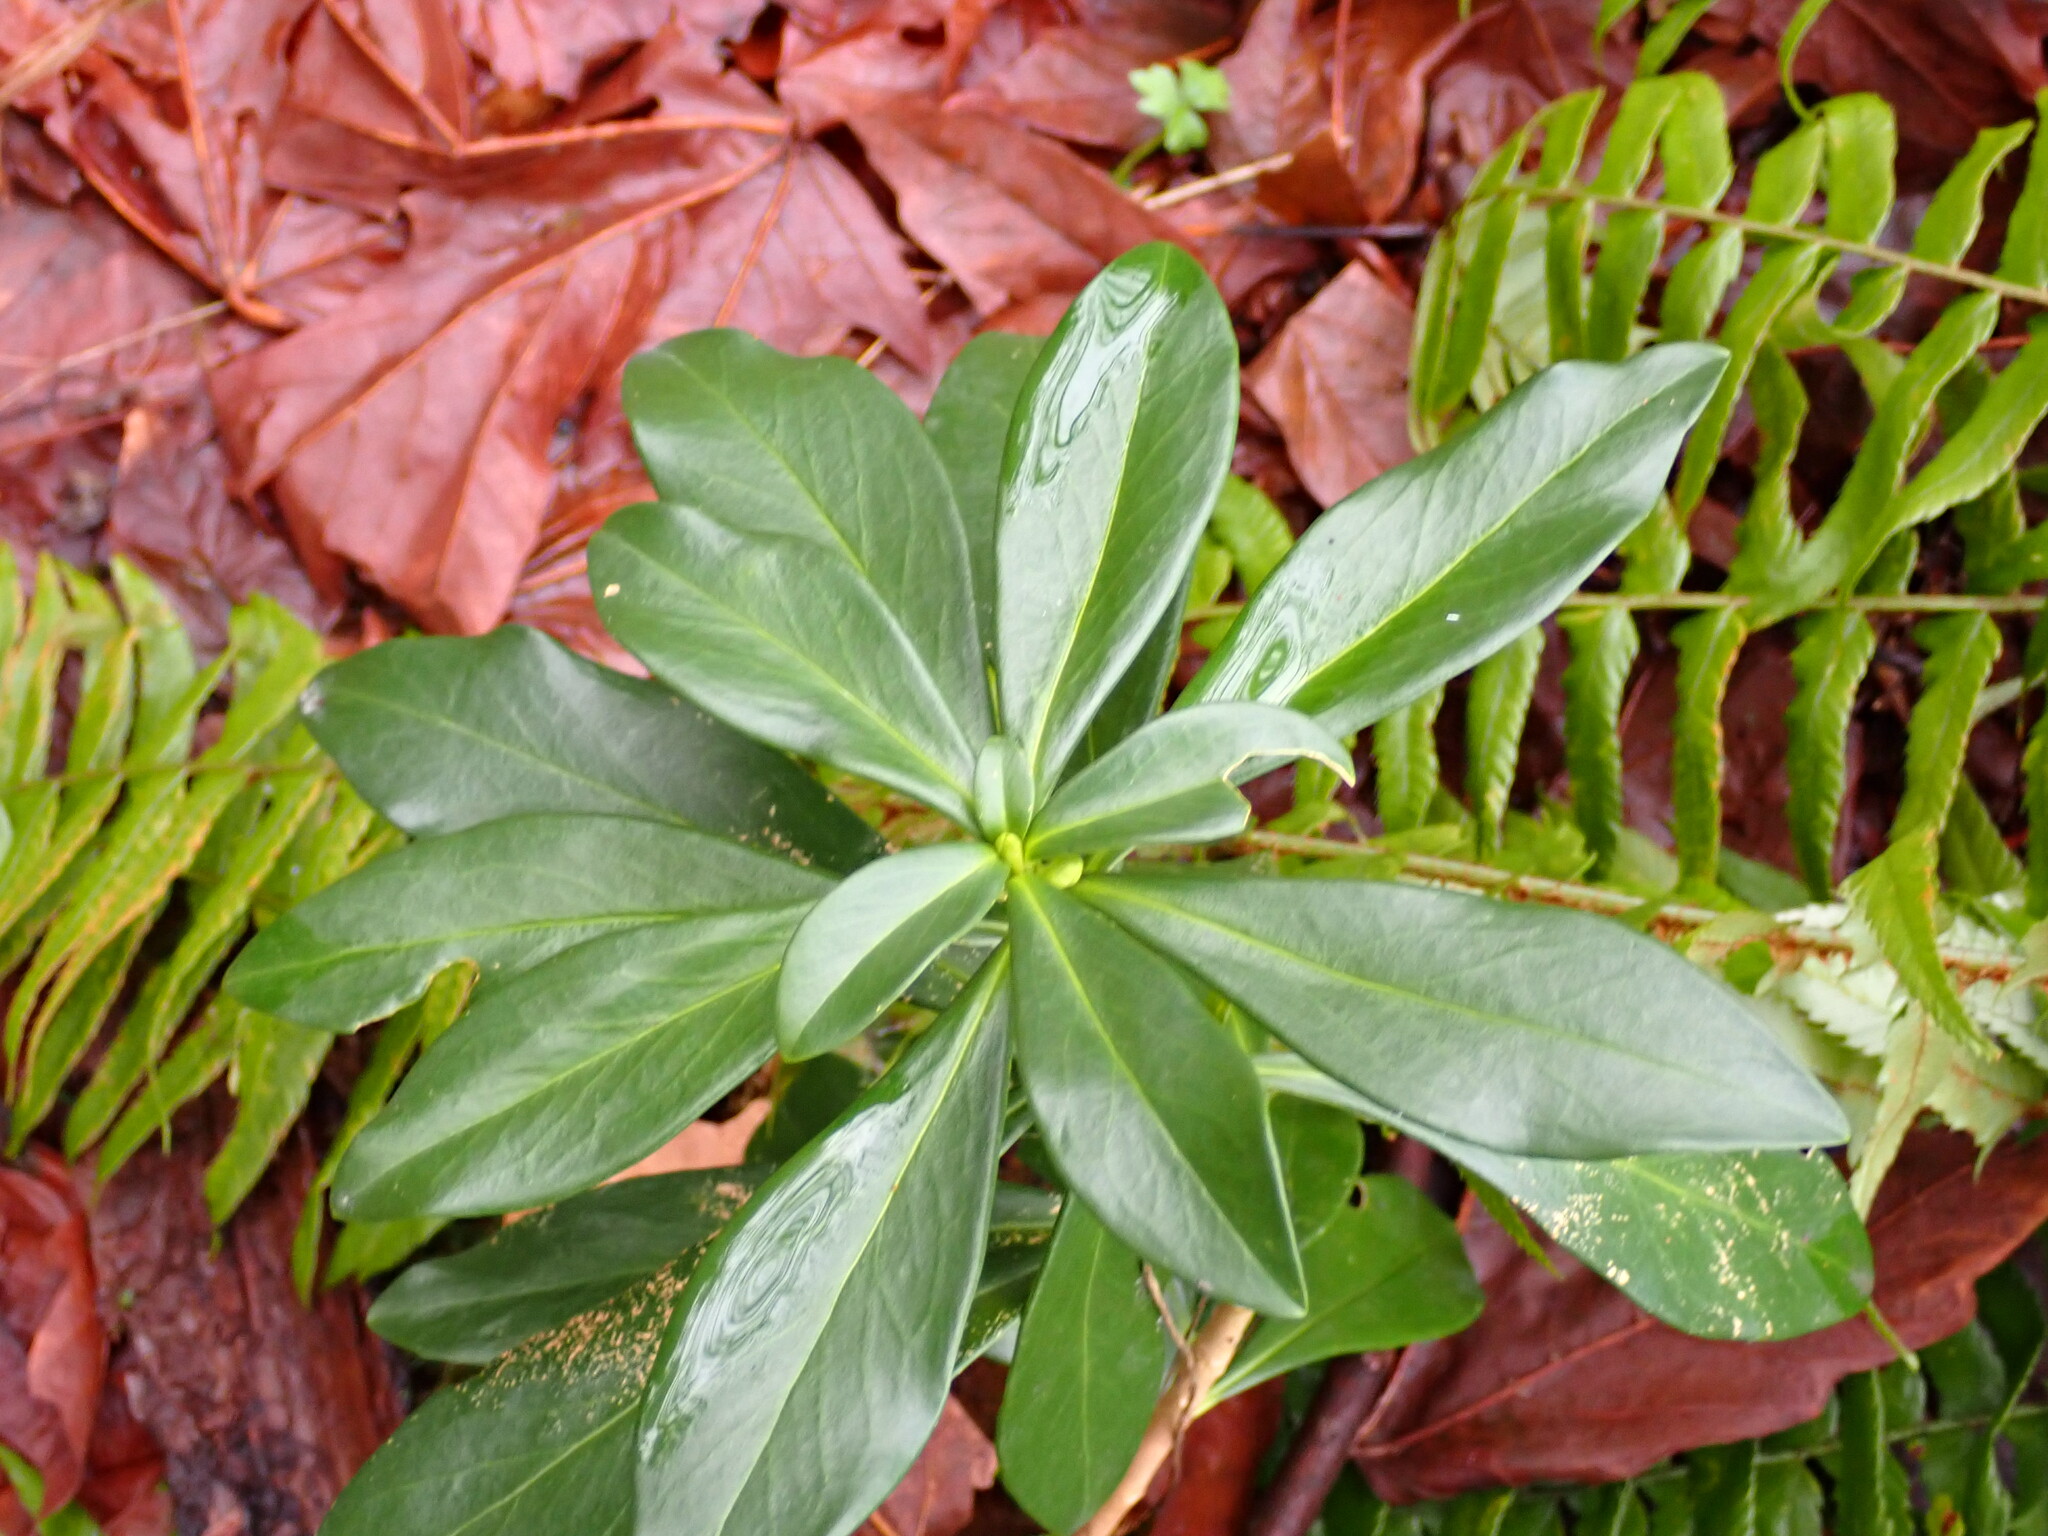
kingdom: Plantae
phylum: Tracheophyta
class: Magnoliopsida
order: Malvales
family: Thymelaeaceae
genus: Daphne
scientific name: Daphne laureola
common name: Spurge-laurel
